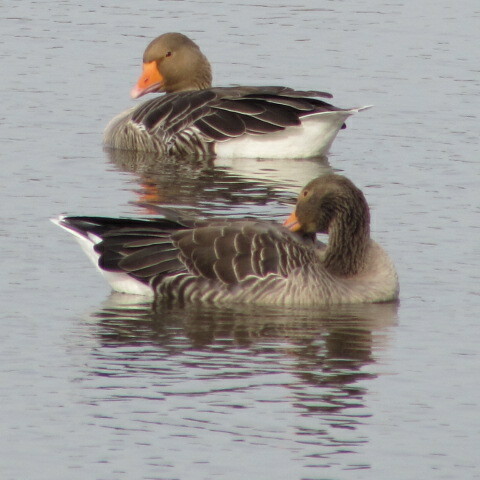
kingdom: Animalia
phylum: Chordata
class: Aves
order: Anseriformes
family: Anatidae
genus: Anser
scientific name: Anser anser
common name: Greylag goose
